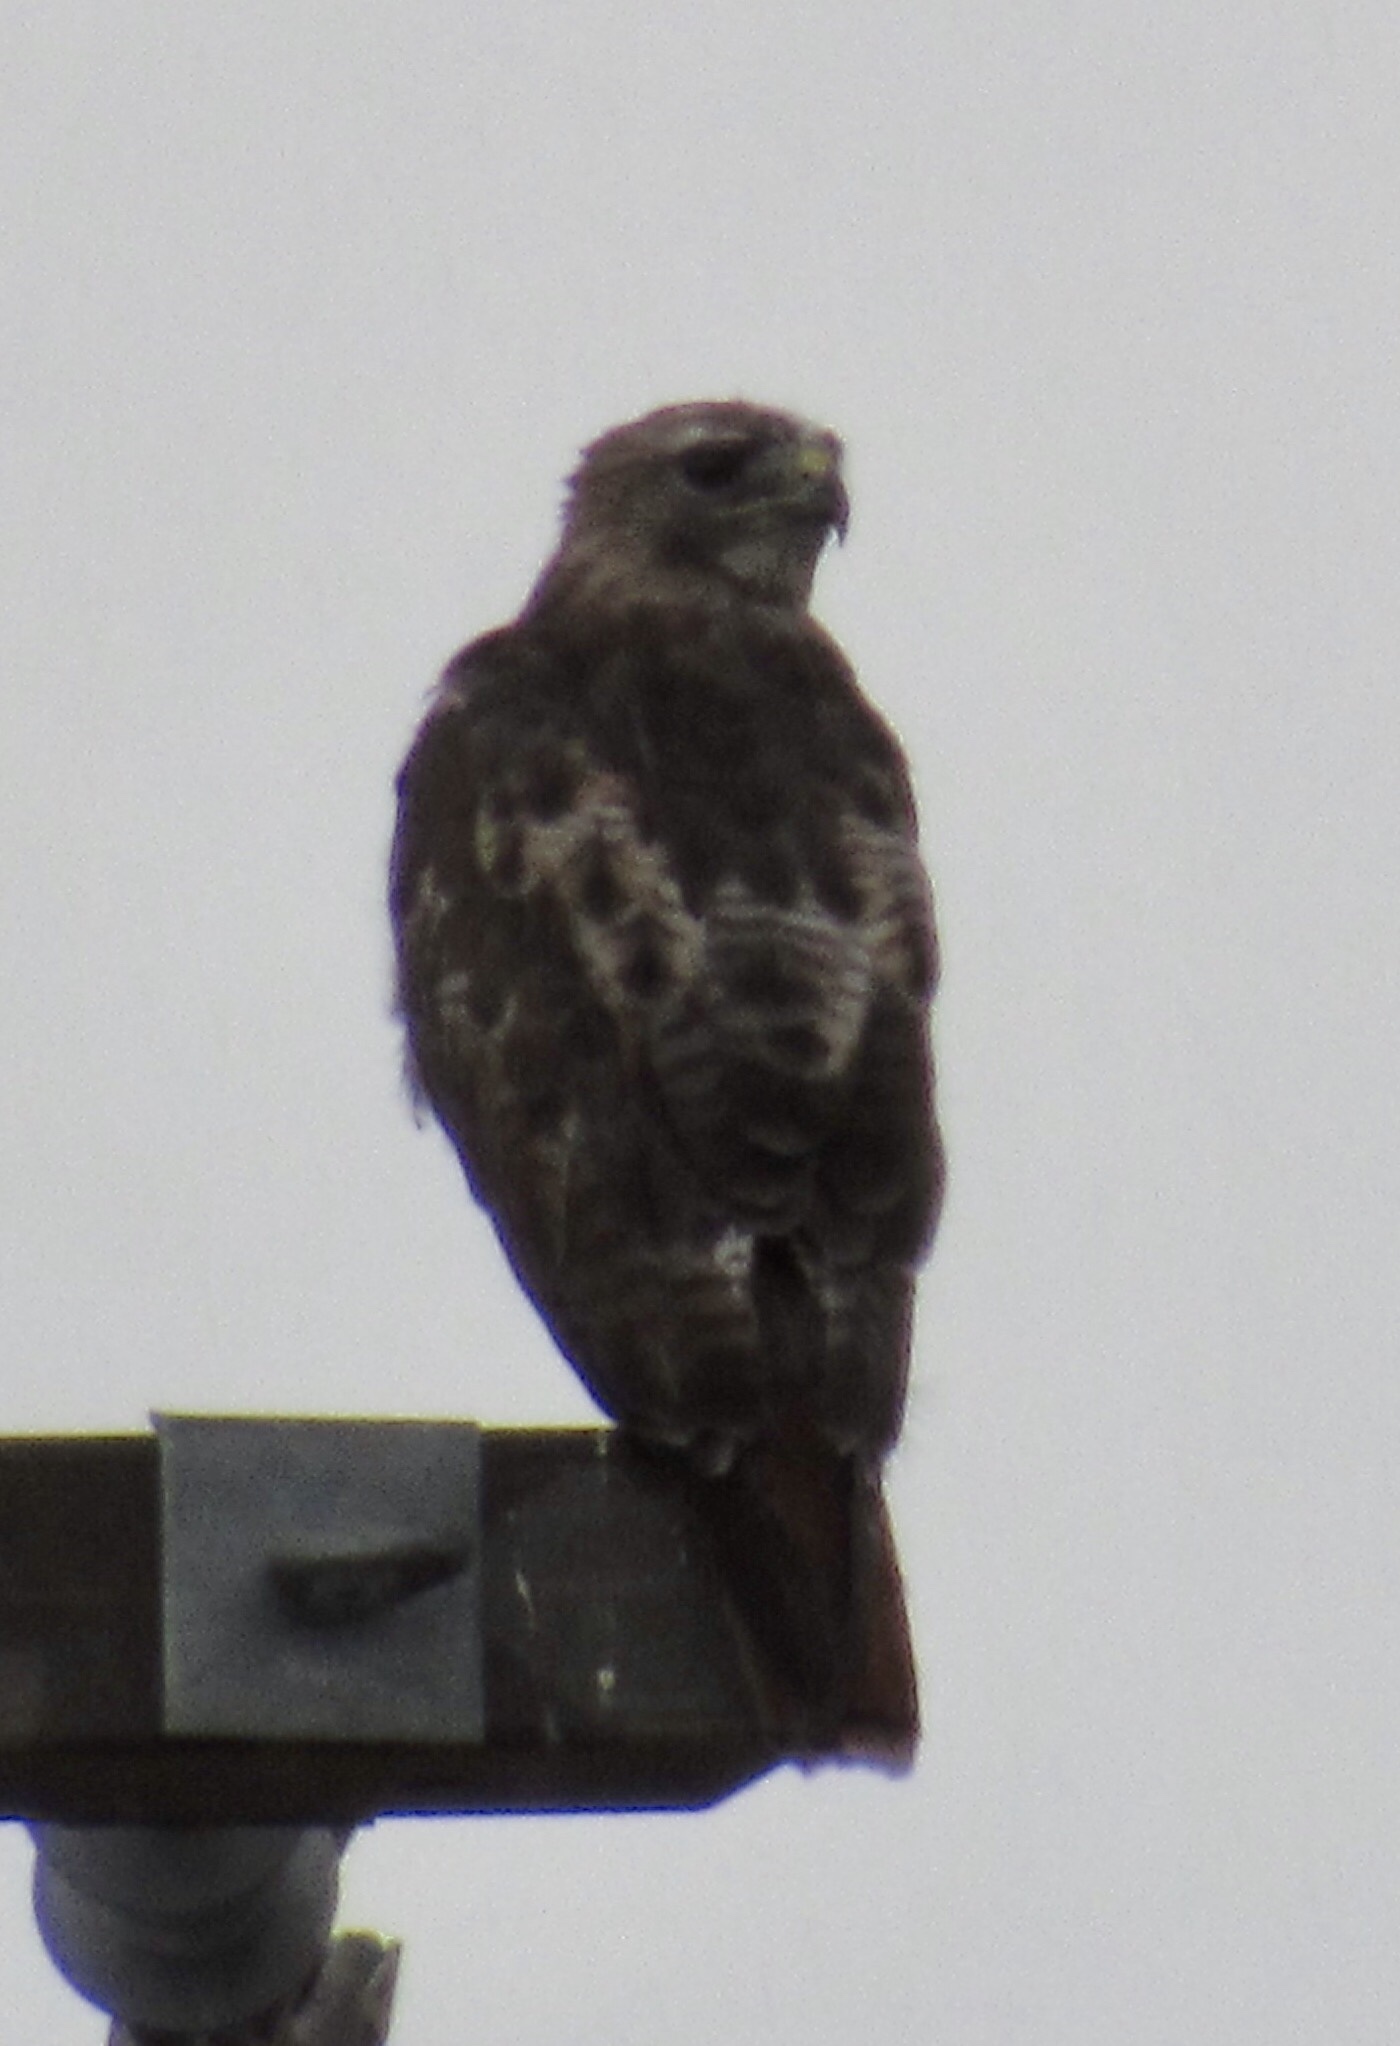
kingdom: Animalia
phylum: Chordata
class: Aves
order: Accipitriformes
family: Accipitridae
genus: Buteo
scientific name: Buteo jamaicensis
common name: Red-tailed hawk
